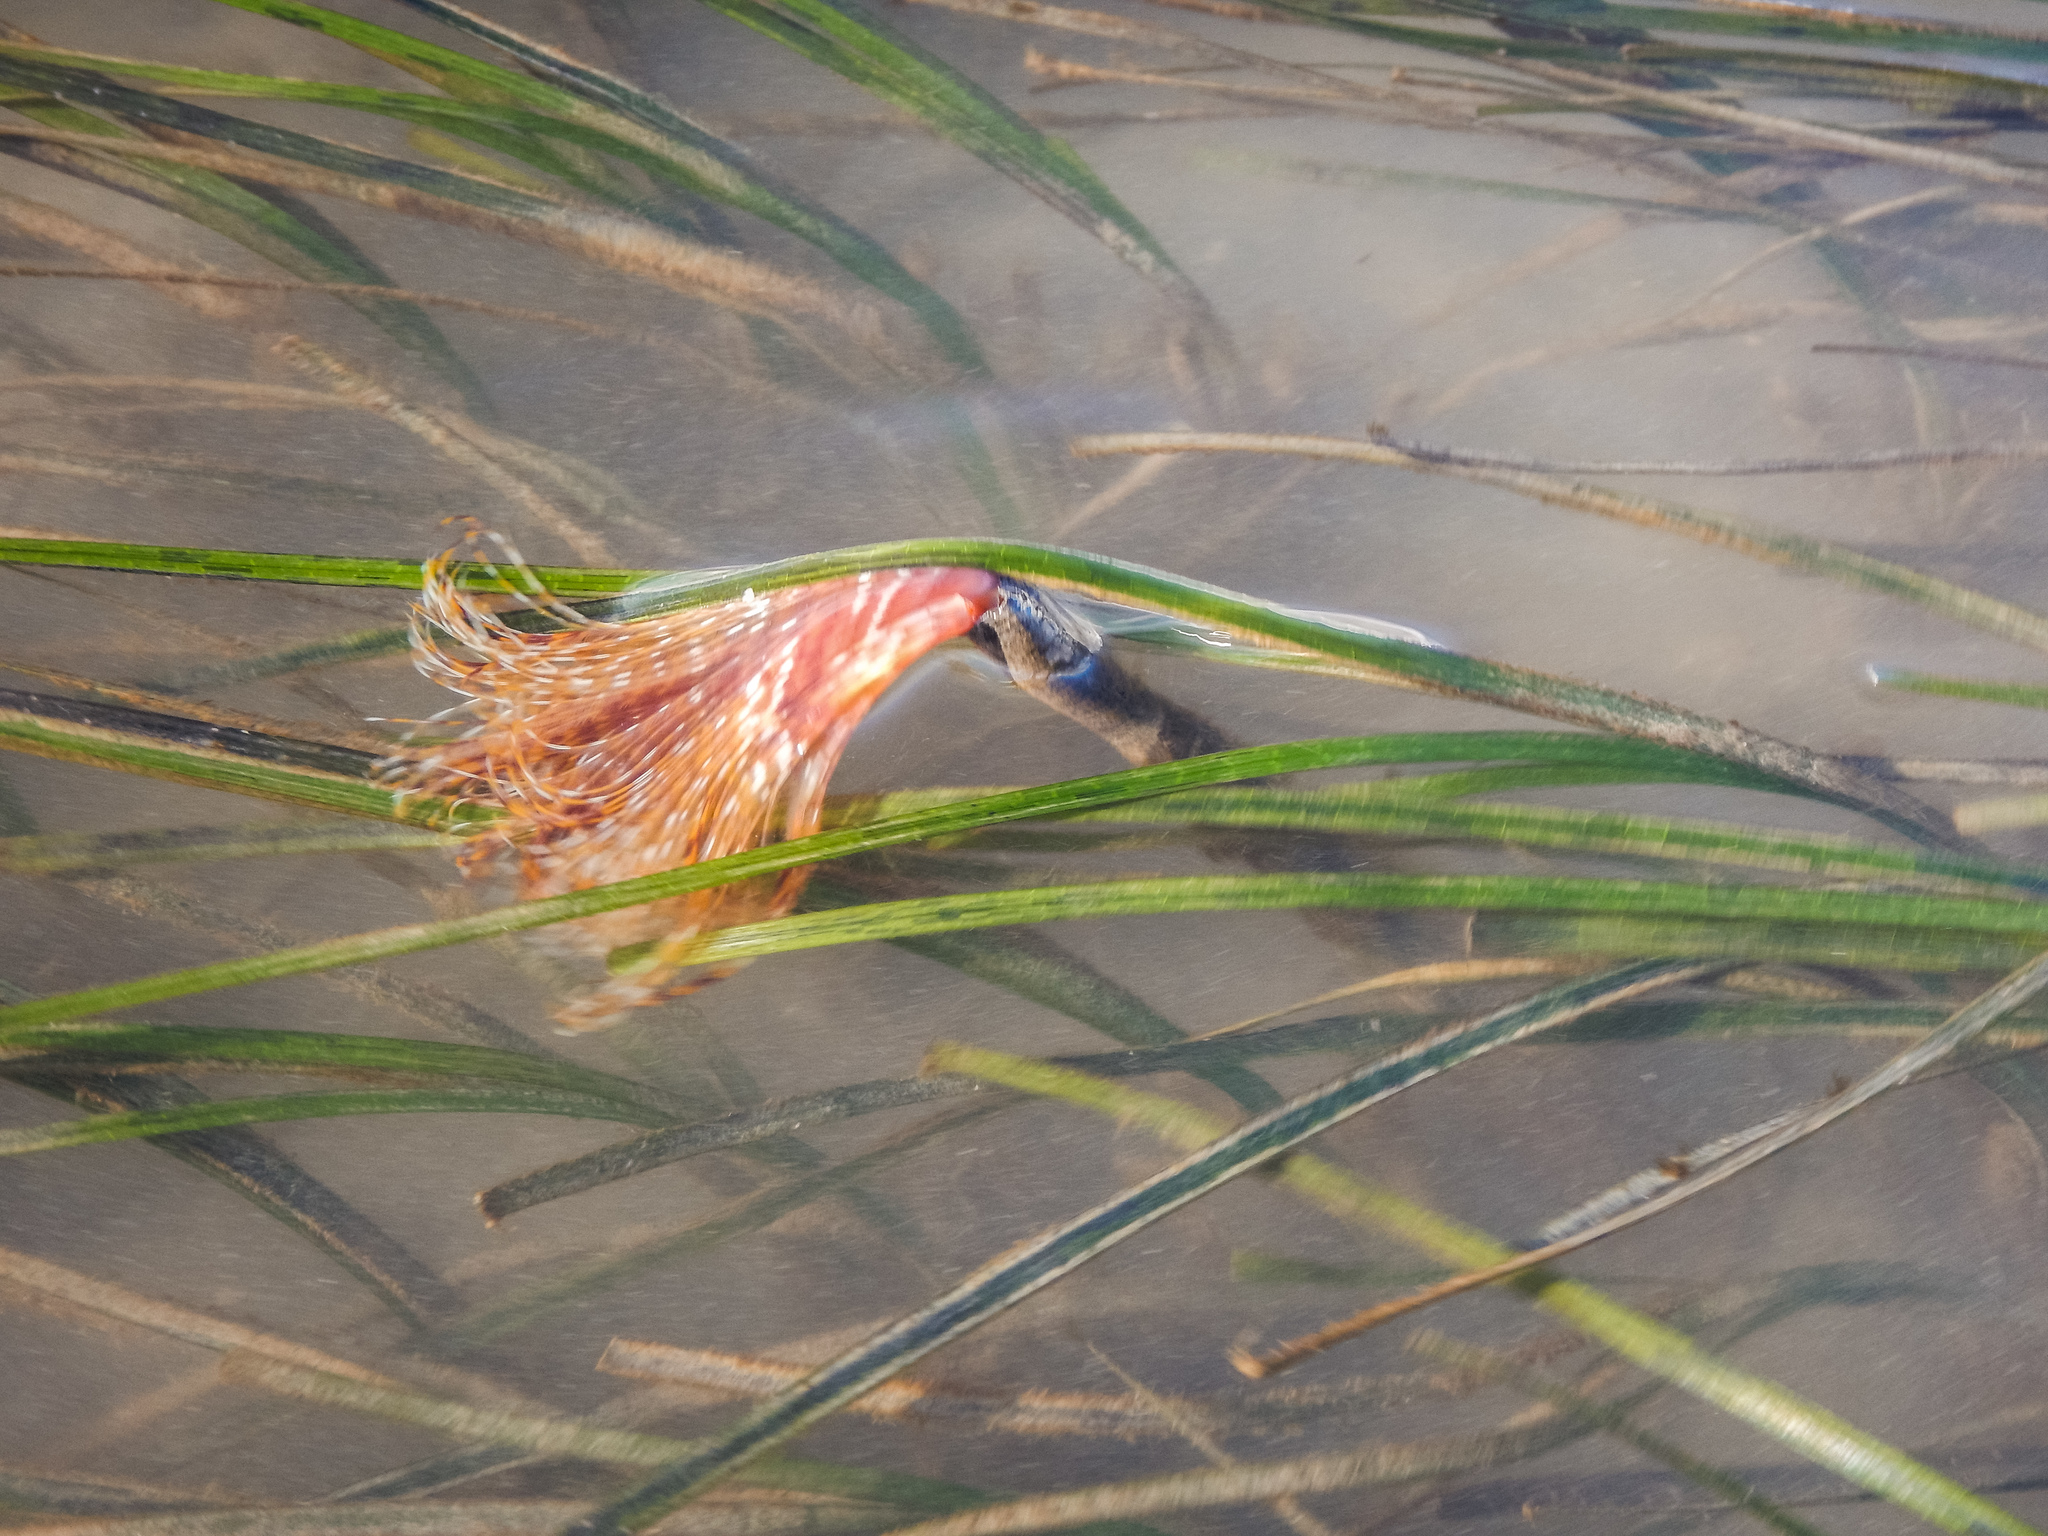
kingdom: Animalia
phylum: Annelida
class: Polychaeta
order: Sabellida
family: Sabellidae
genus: Sabella
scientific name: Sabella spallanzanii
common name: Feather duster worm
